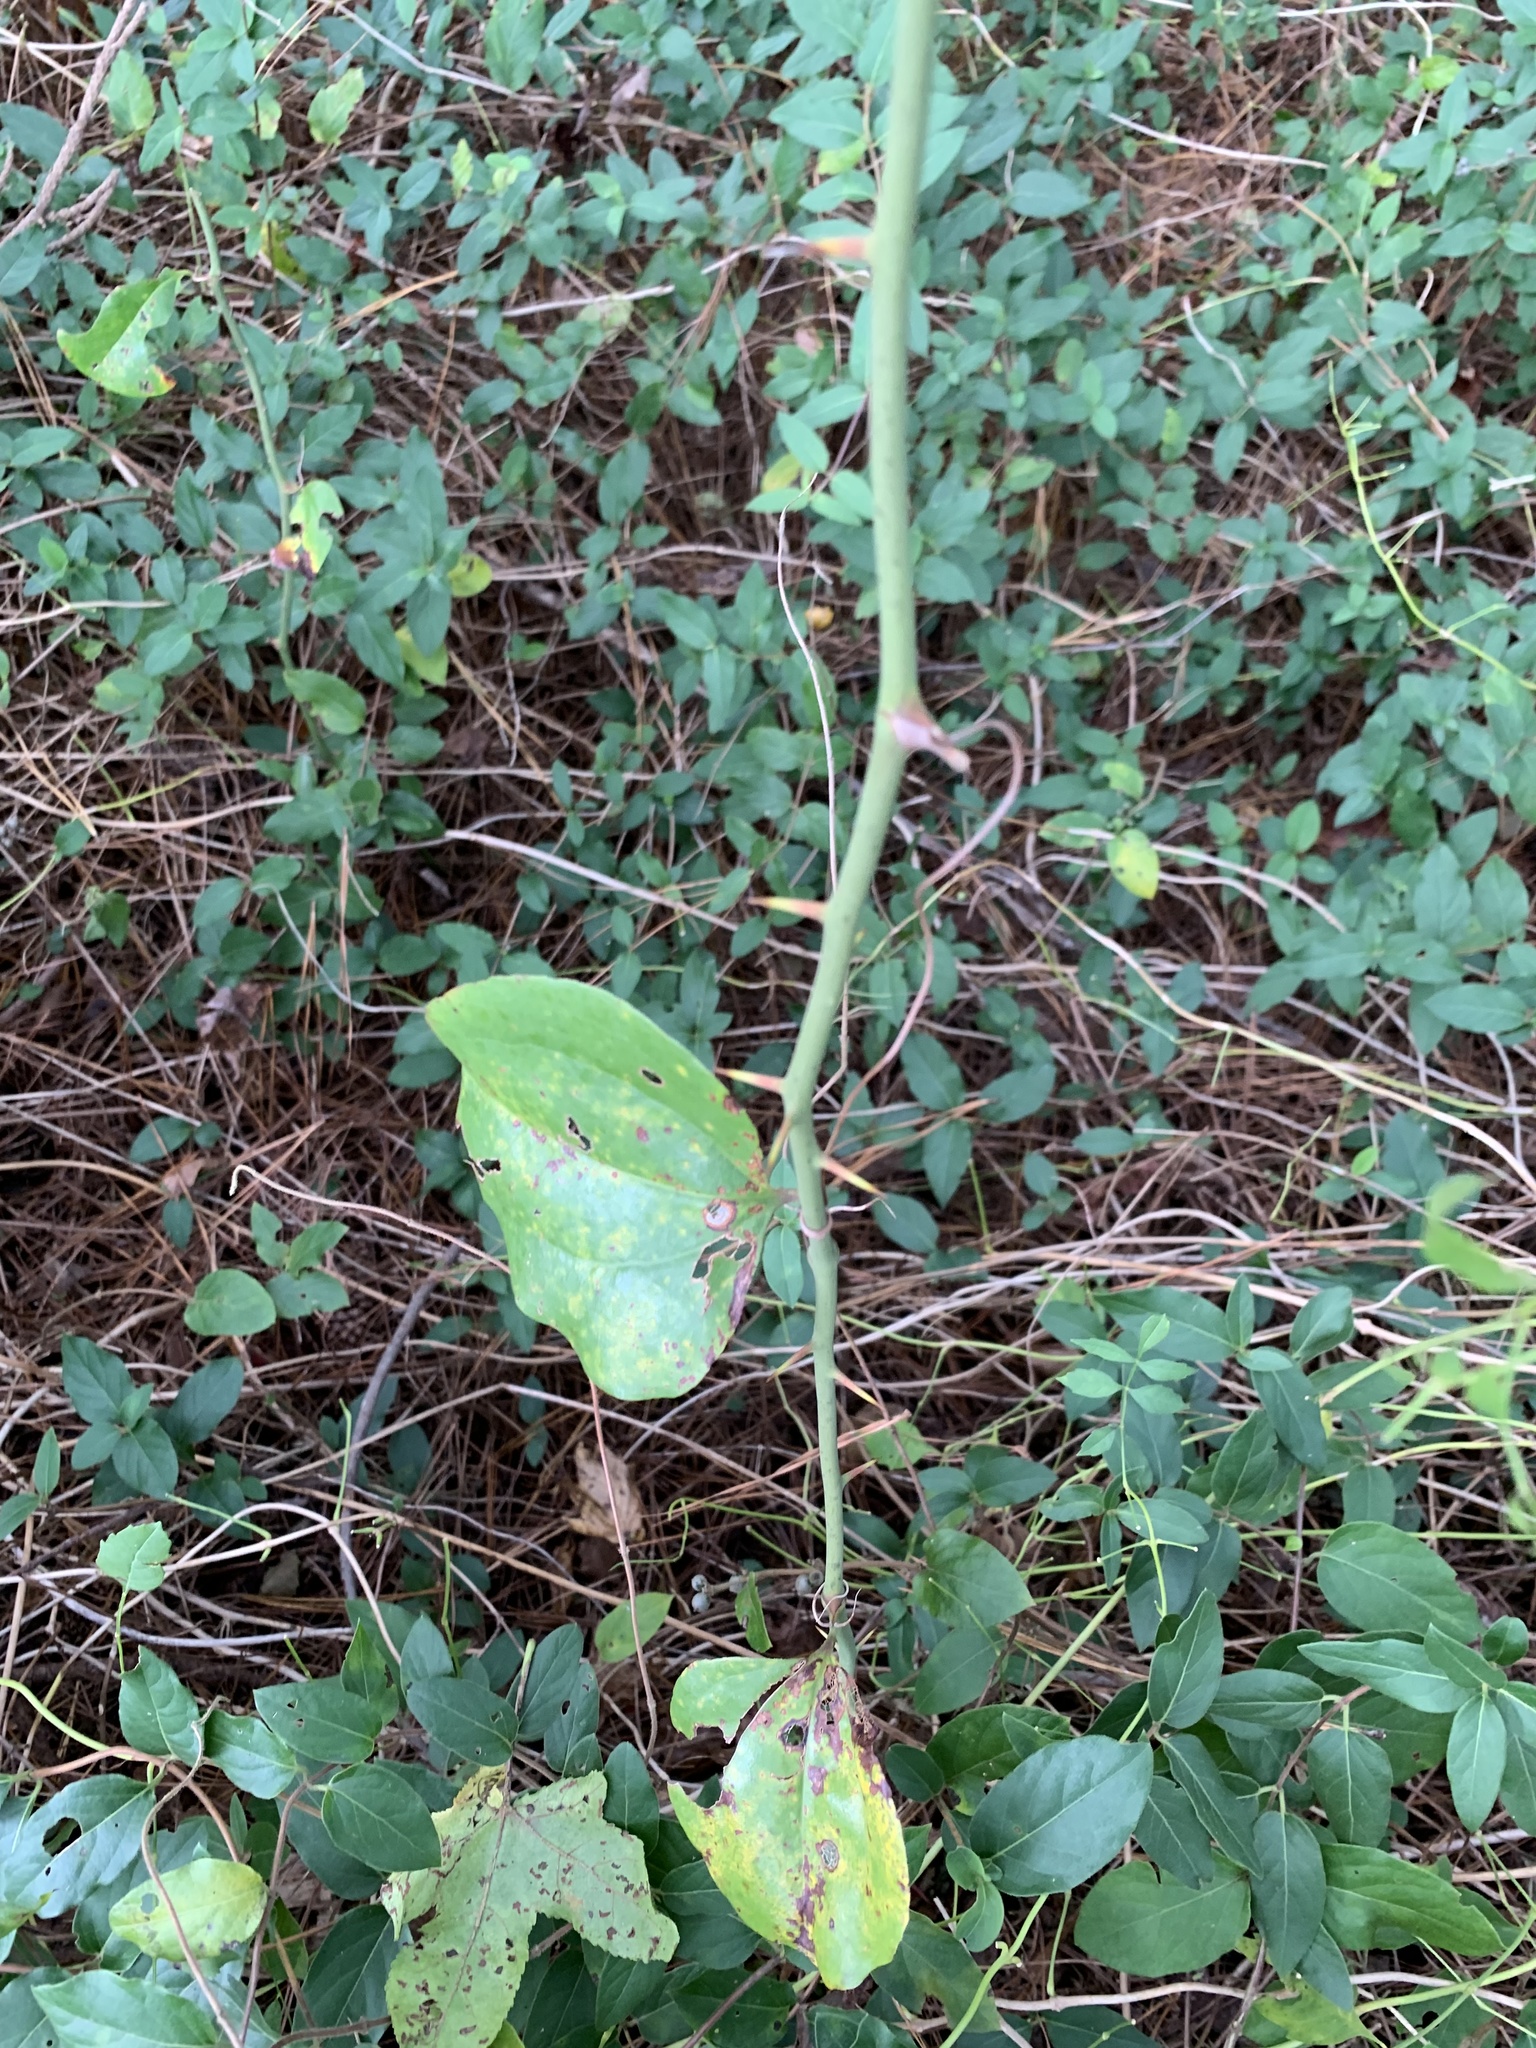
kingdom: Plantae
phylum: Tracheophyta
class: Liliopsida
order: Liliales
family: Smilacaceae
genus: Smilax
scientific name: Smilax rotundifolia
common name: Bullbriar
